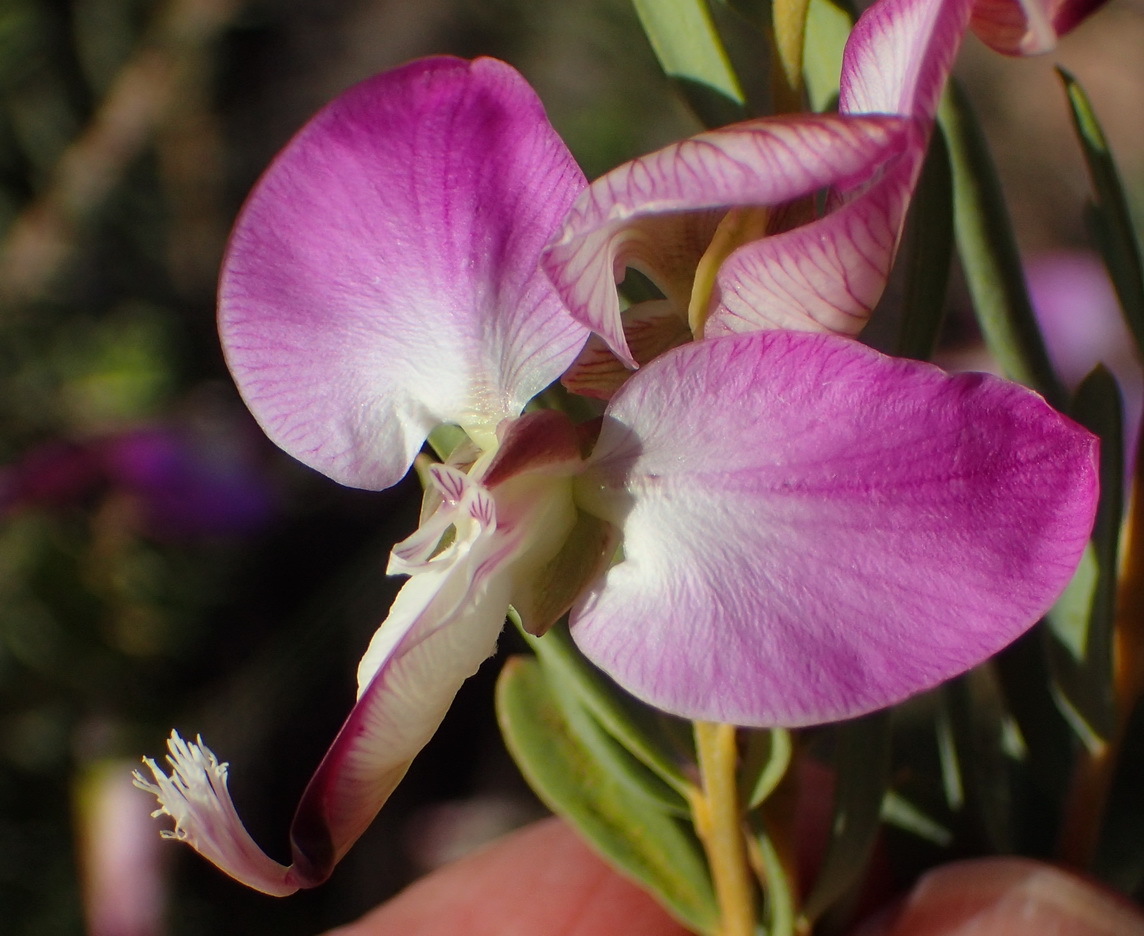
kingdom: Plantae
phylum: Tracheophyta
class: Magnoliopsida
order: Fabales
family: Polygalaceae
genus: Polygala
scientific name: Polygala myrtifolia
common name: Myrtle-leaf milkwort
